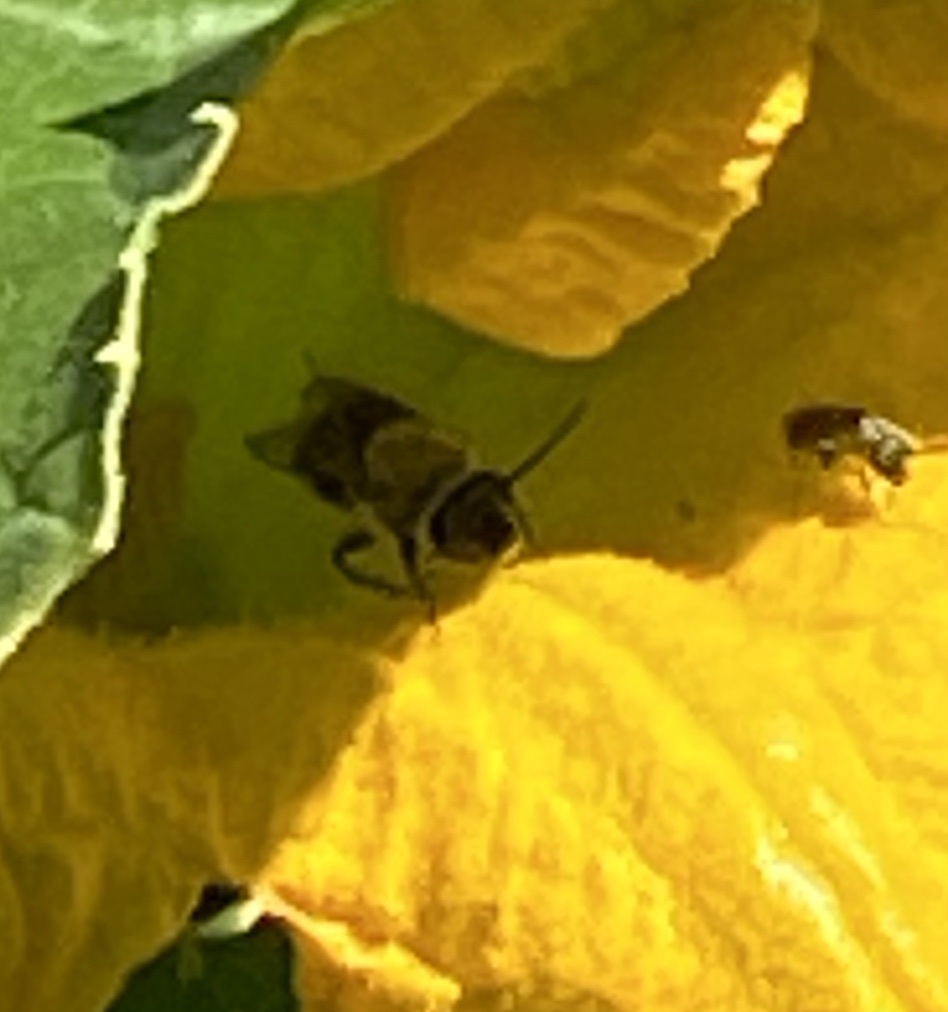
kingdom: Animalia
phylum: Arthropoda
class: Insecta
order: Hymenoptera
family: Apidae
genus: Peponapis
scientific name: Peponapis pruinosa
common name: Pruinose squash bee
